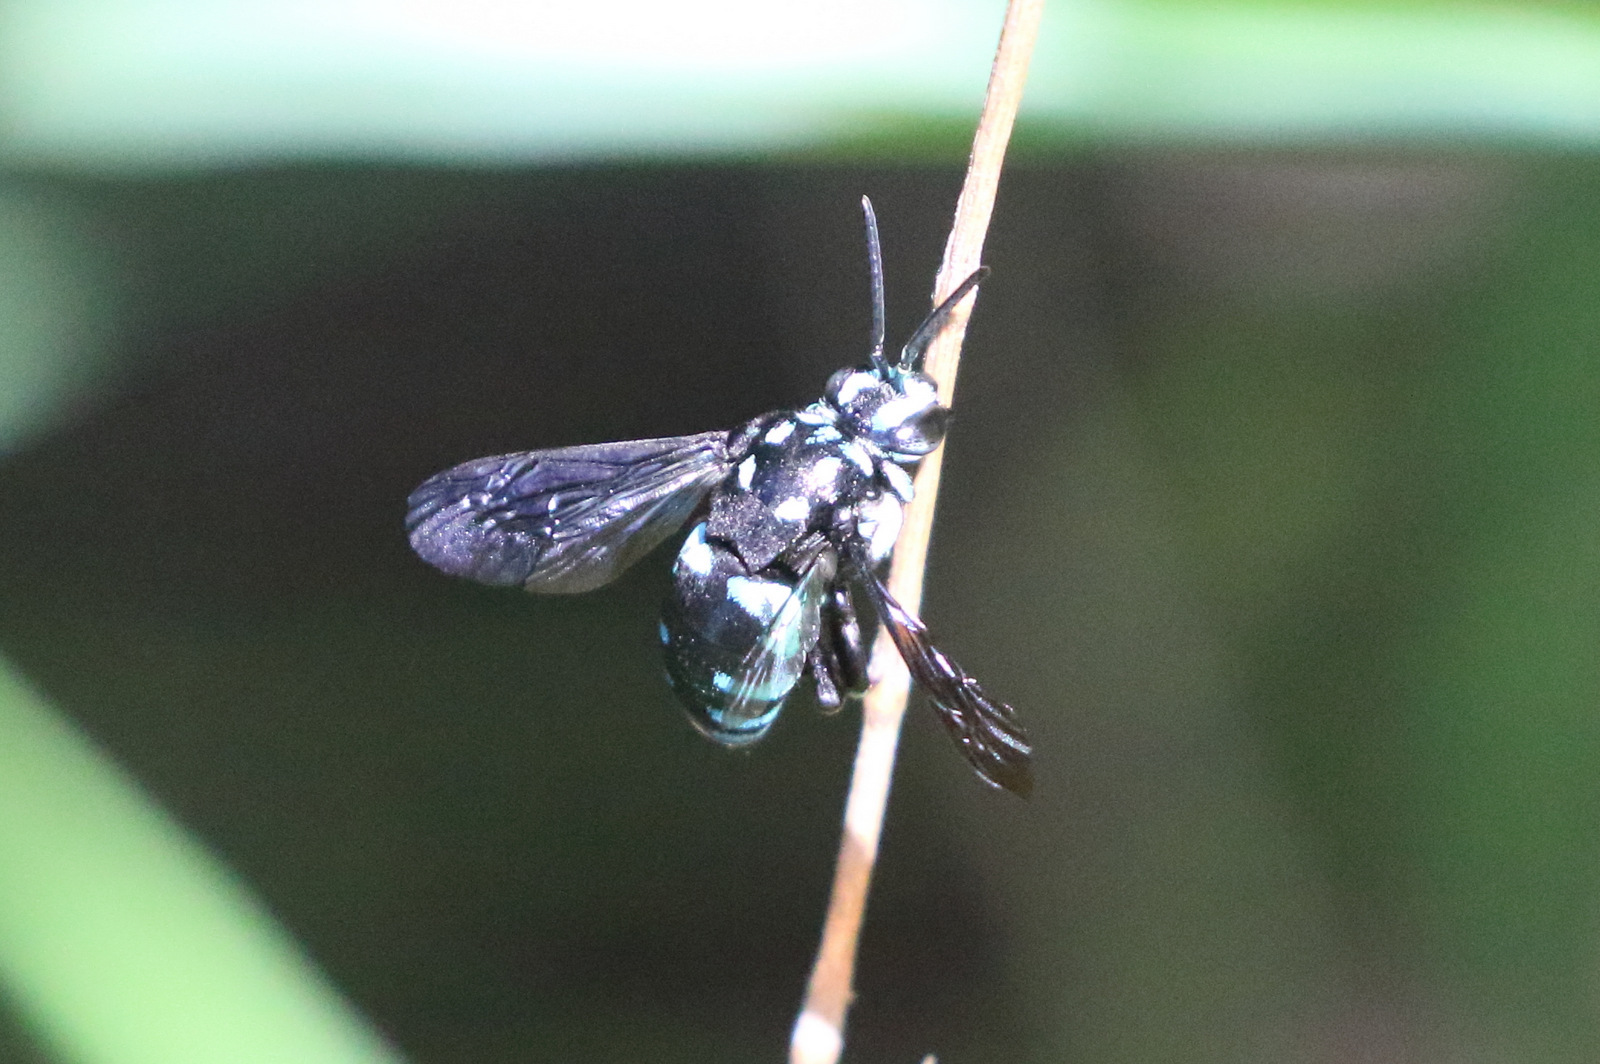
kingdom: Animalia
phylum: Arthropoda
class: Insecta
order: Hymenoptera
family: Apidae
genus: Thyreus
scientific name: Thyreus nitidulus
